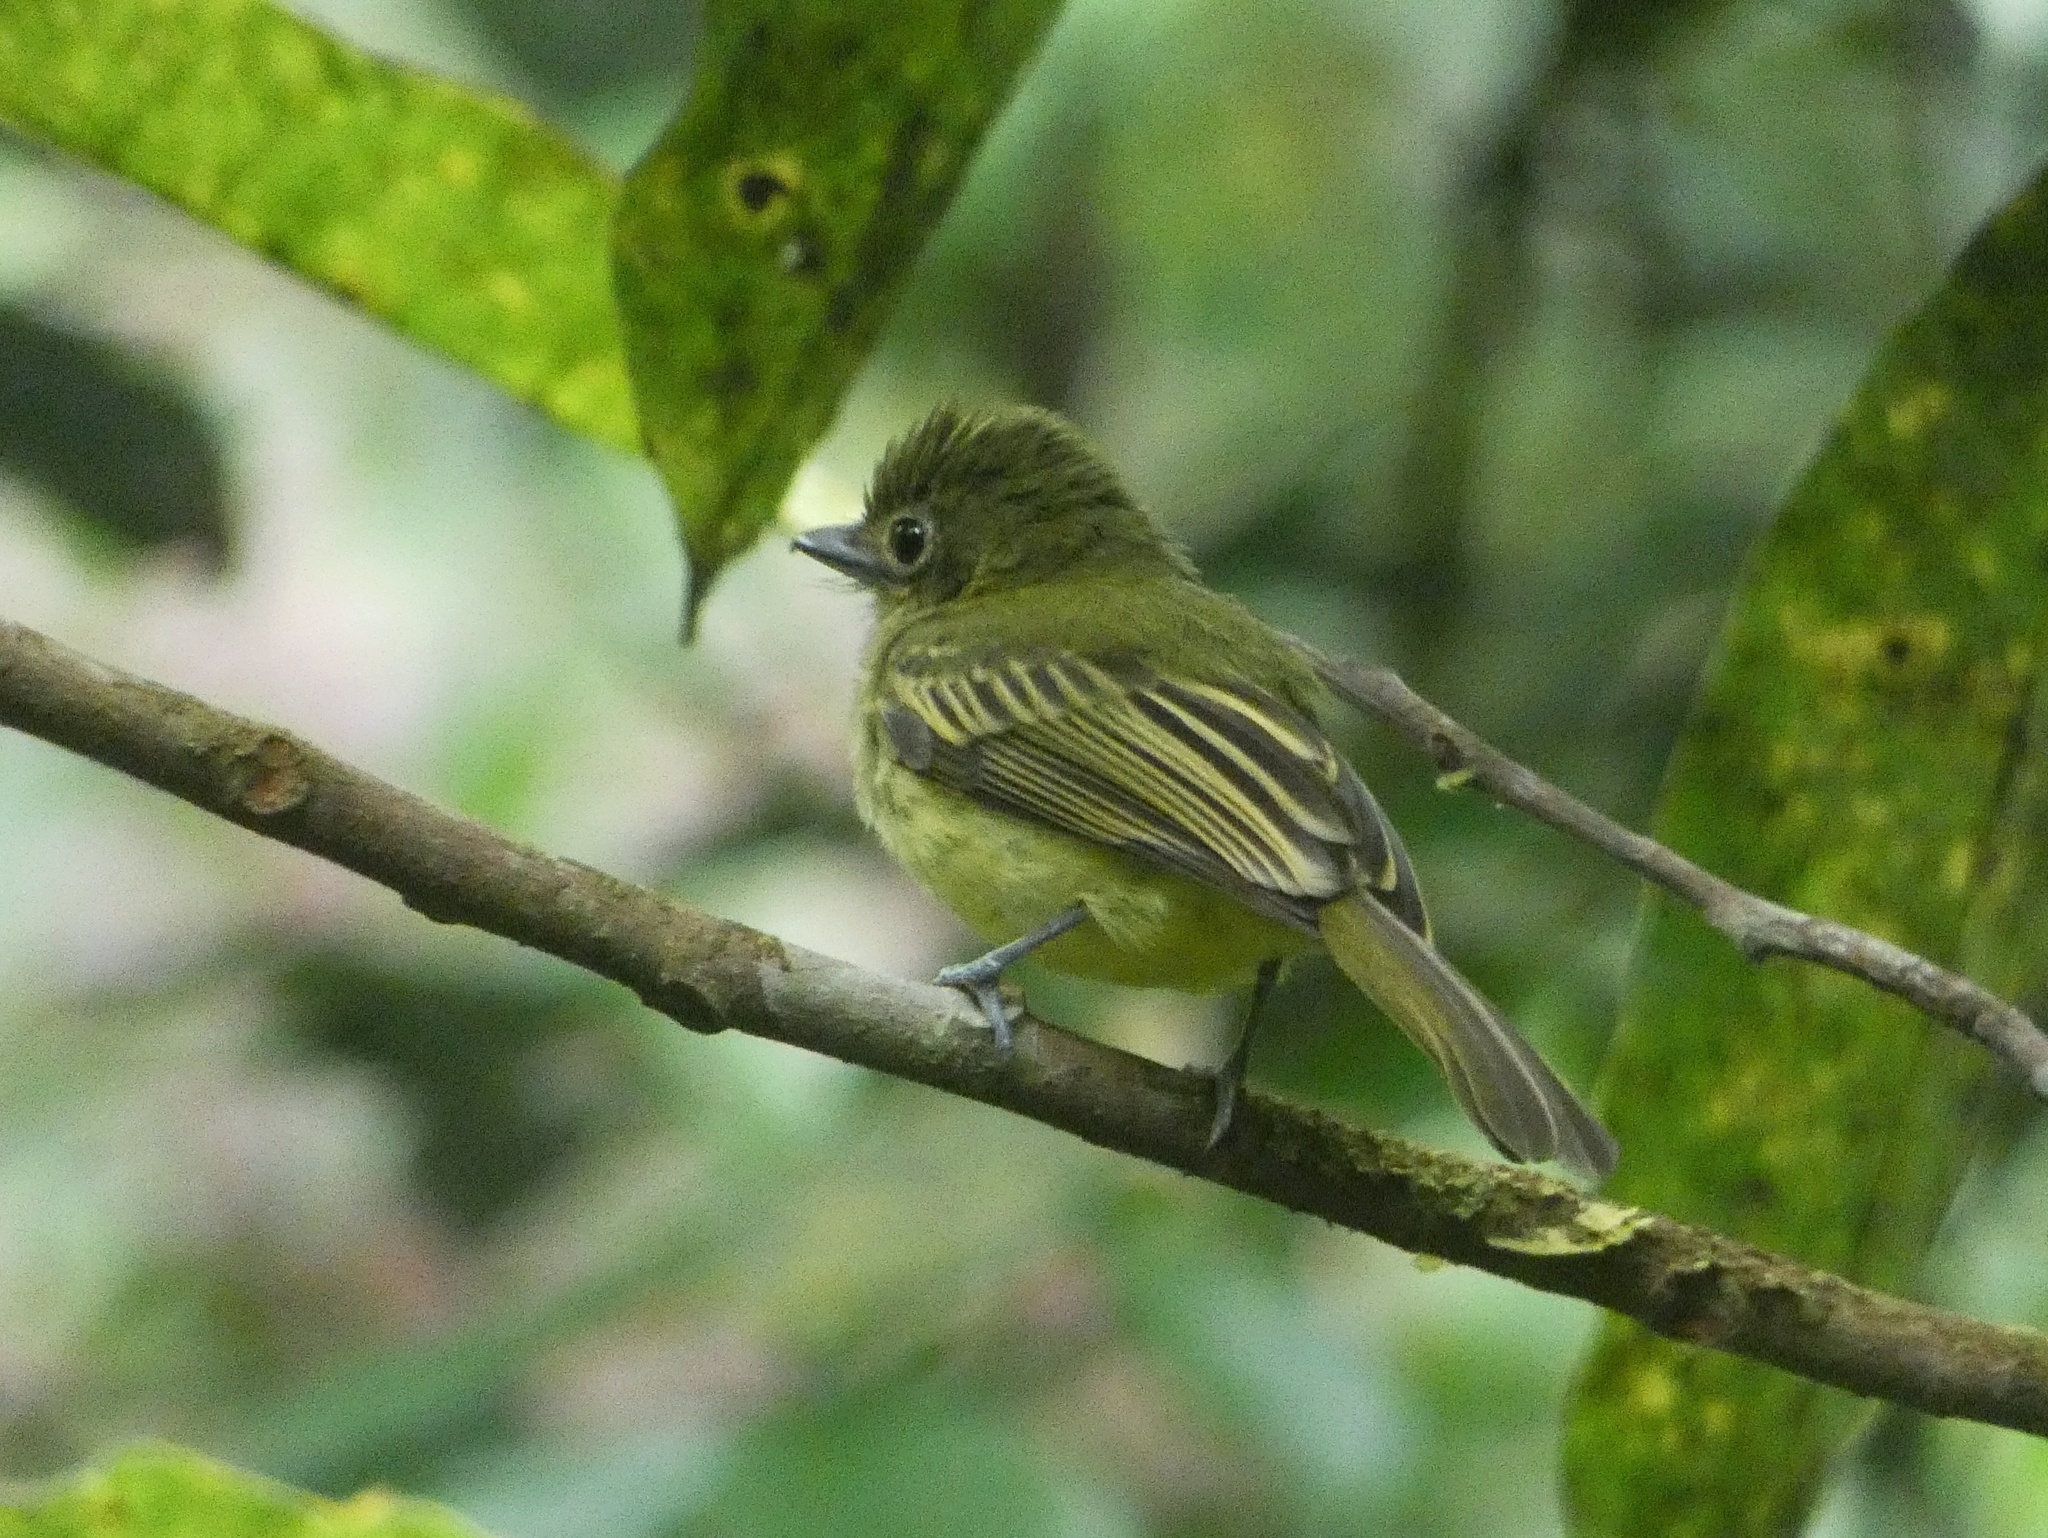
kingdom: Animalia
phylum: Chordata
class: Aves
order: Passeriformes
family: Tyrannidae
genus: Rhynchocyclus
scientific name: Rhynchocyclus olivaceus
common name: Olivaceous flatbill
